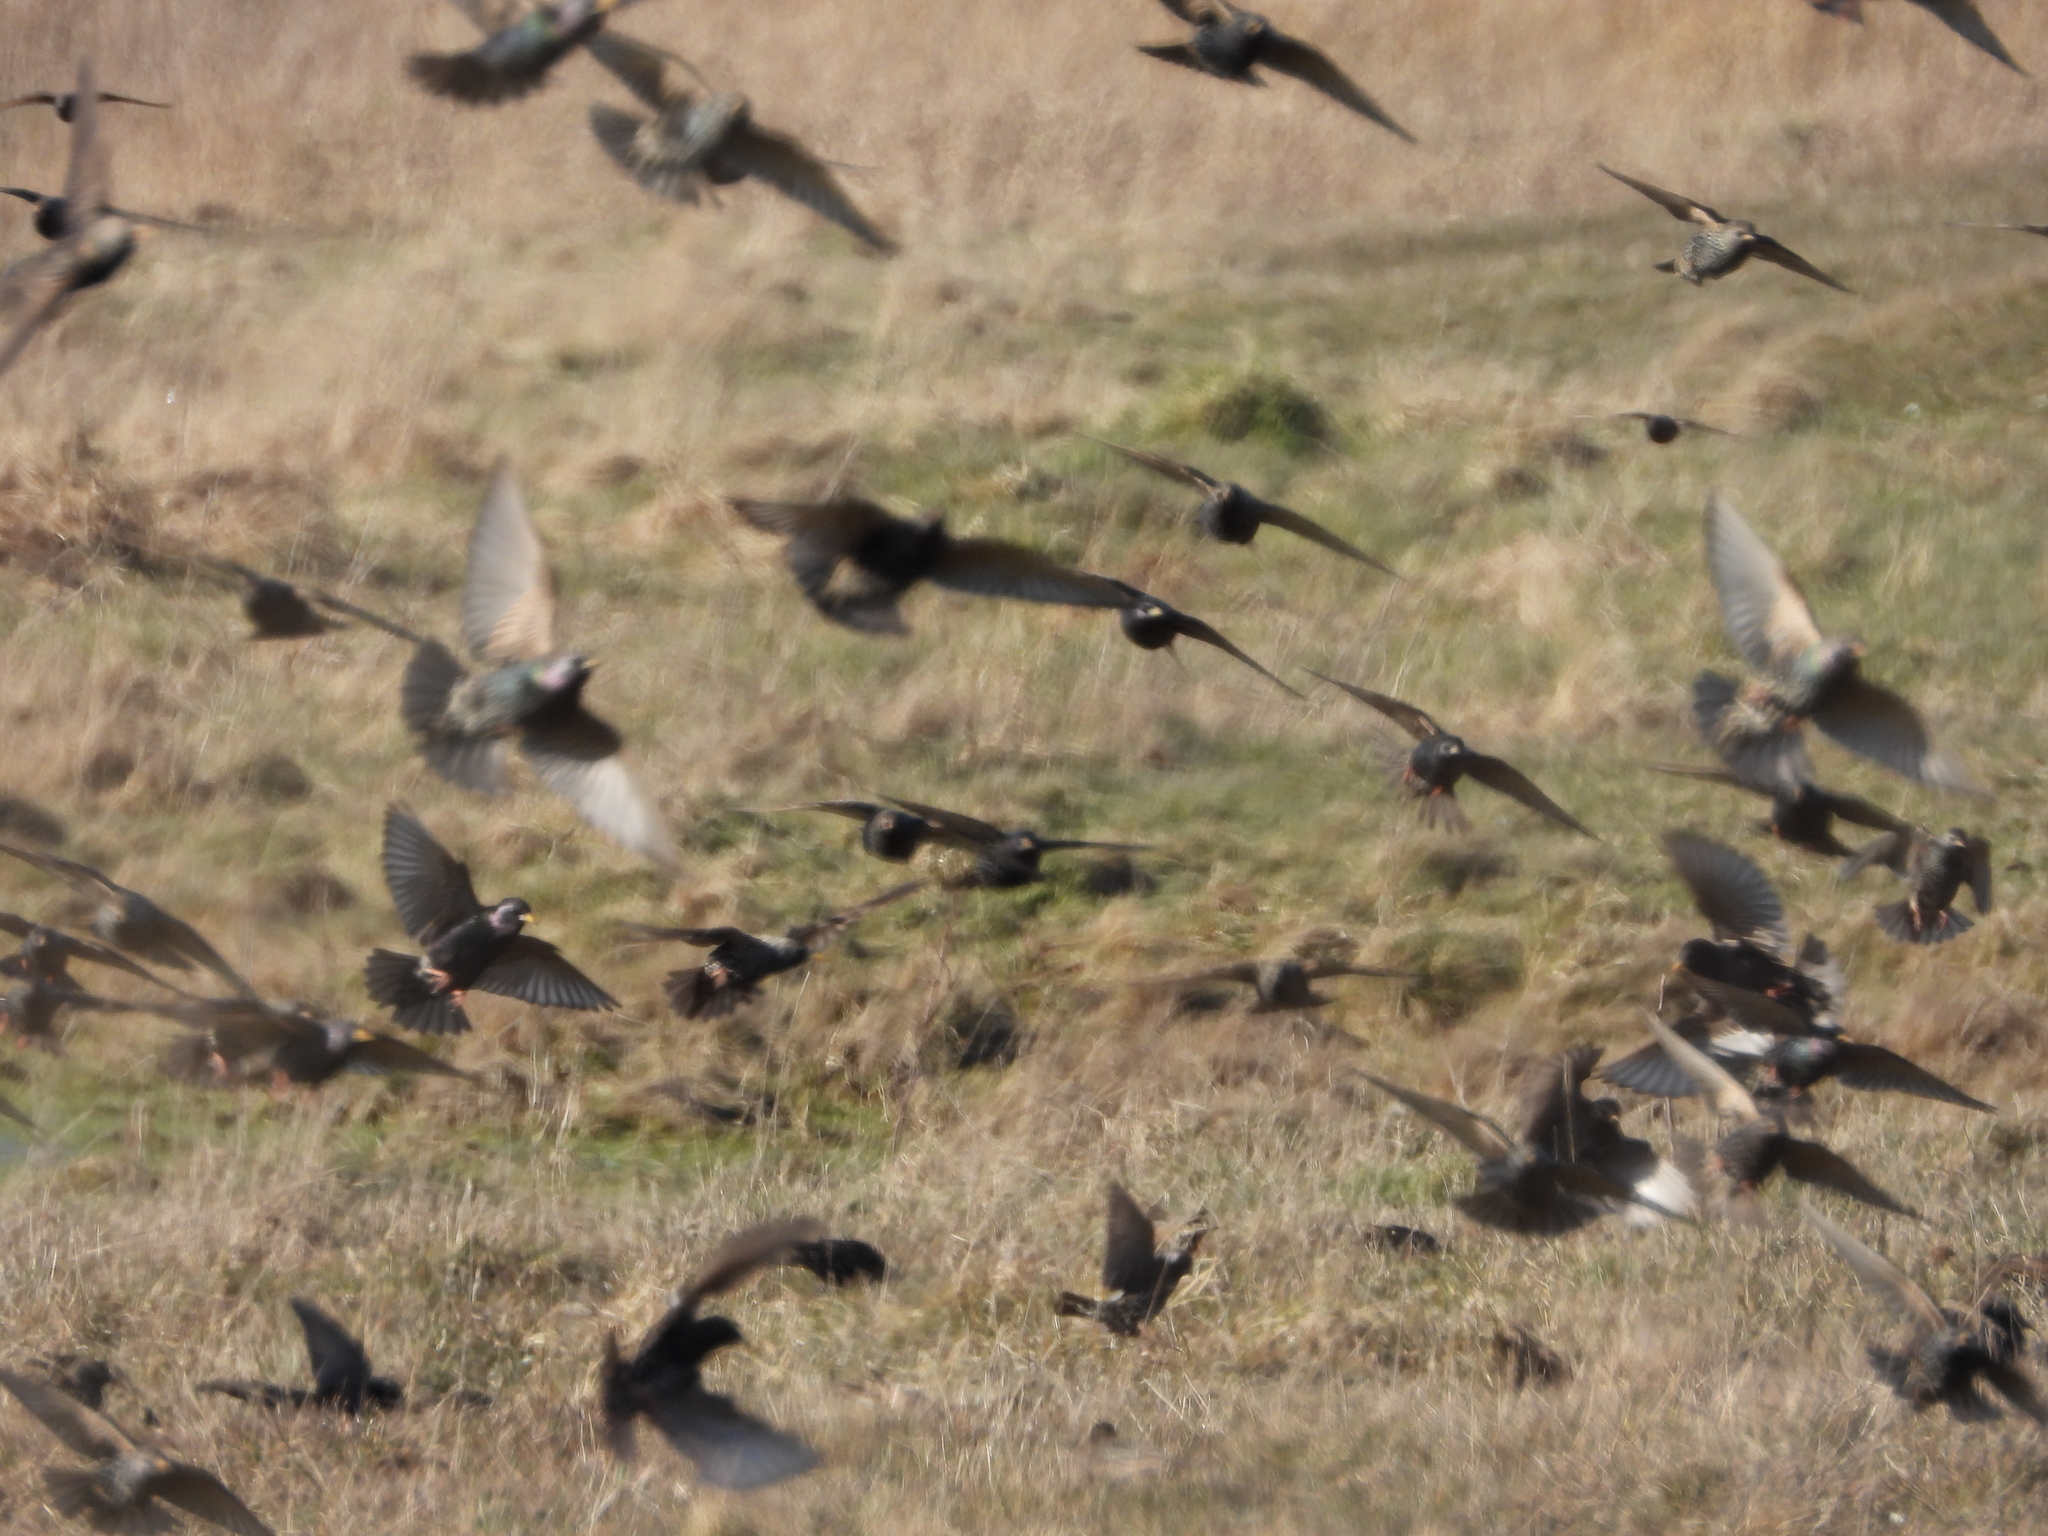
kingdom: Animalia
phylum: Chordata
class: Aves
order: Passeriformes
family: Sturnidae
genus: Sturnus
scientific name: Sturnus vulgaris
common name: Common starling
